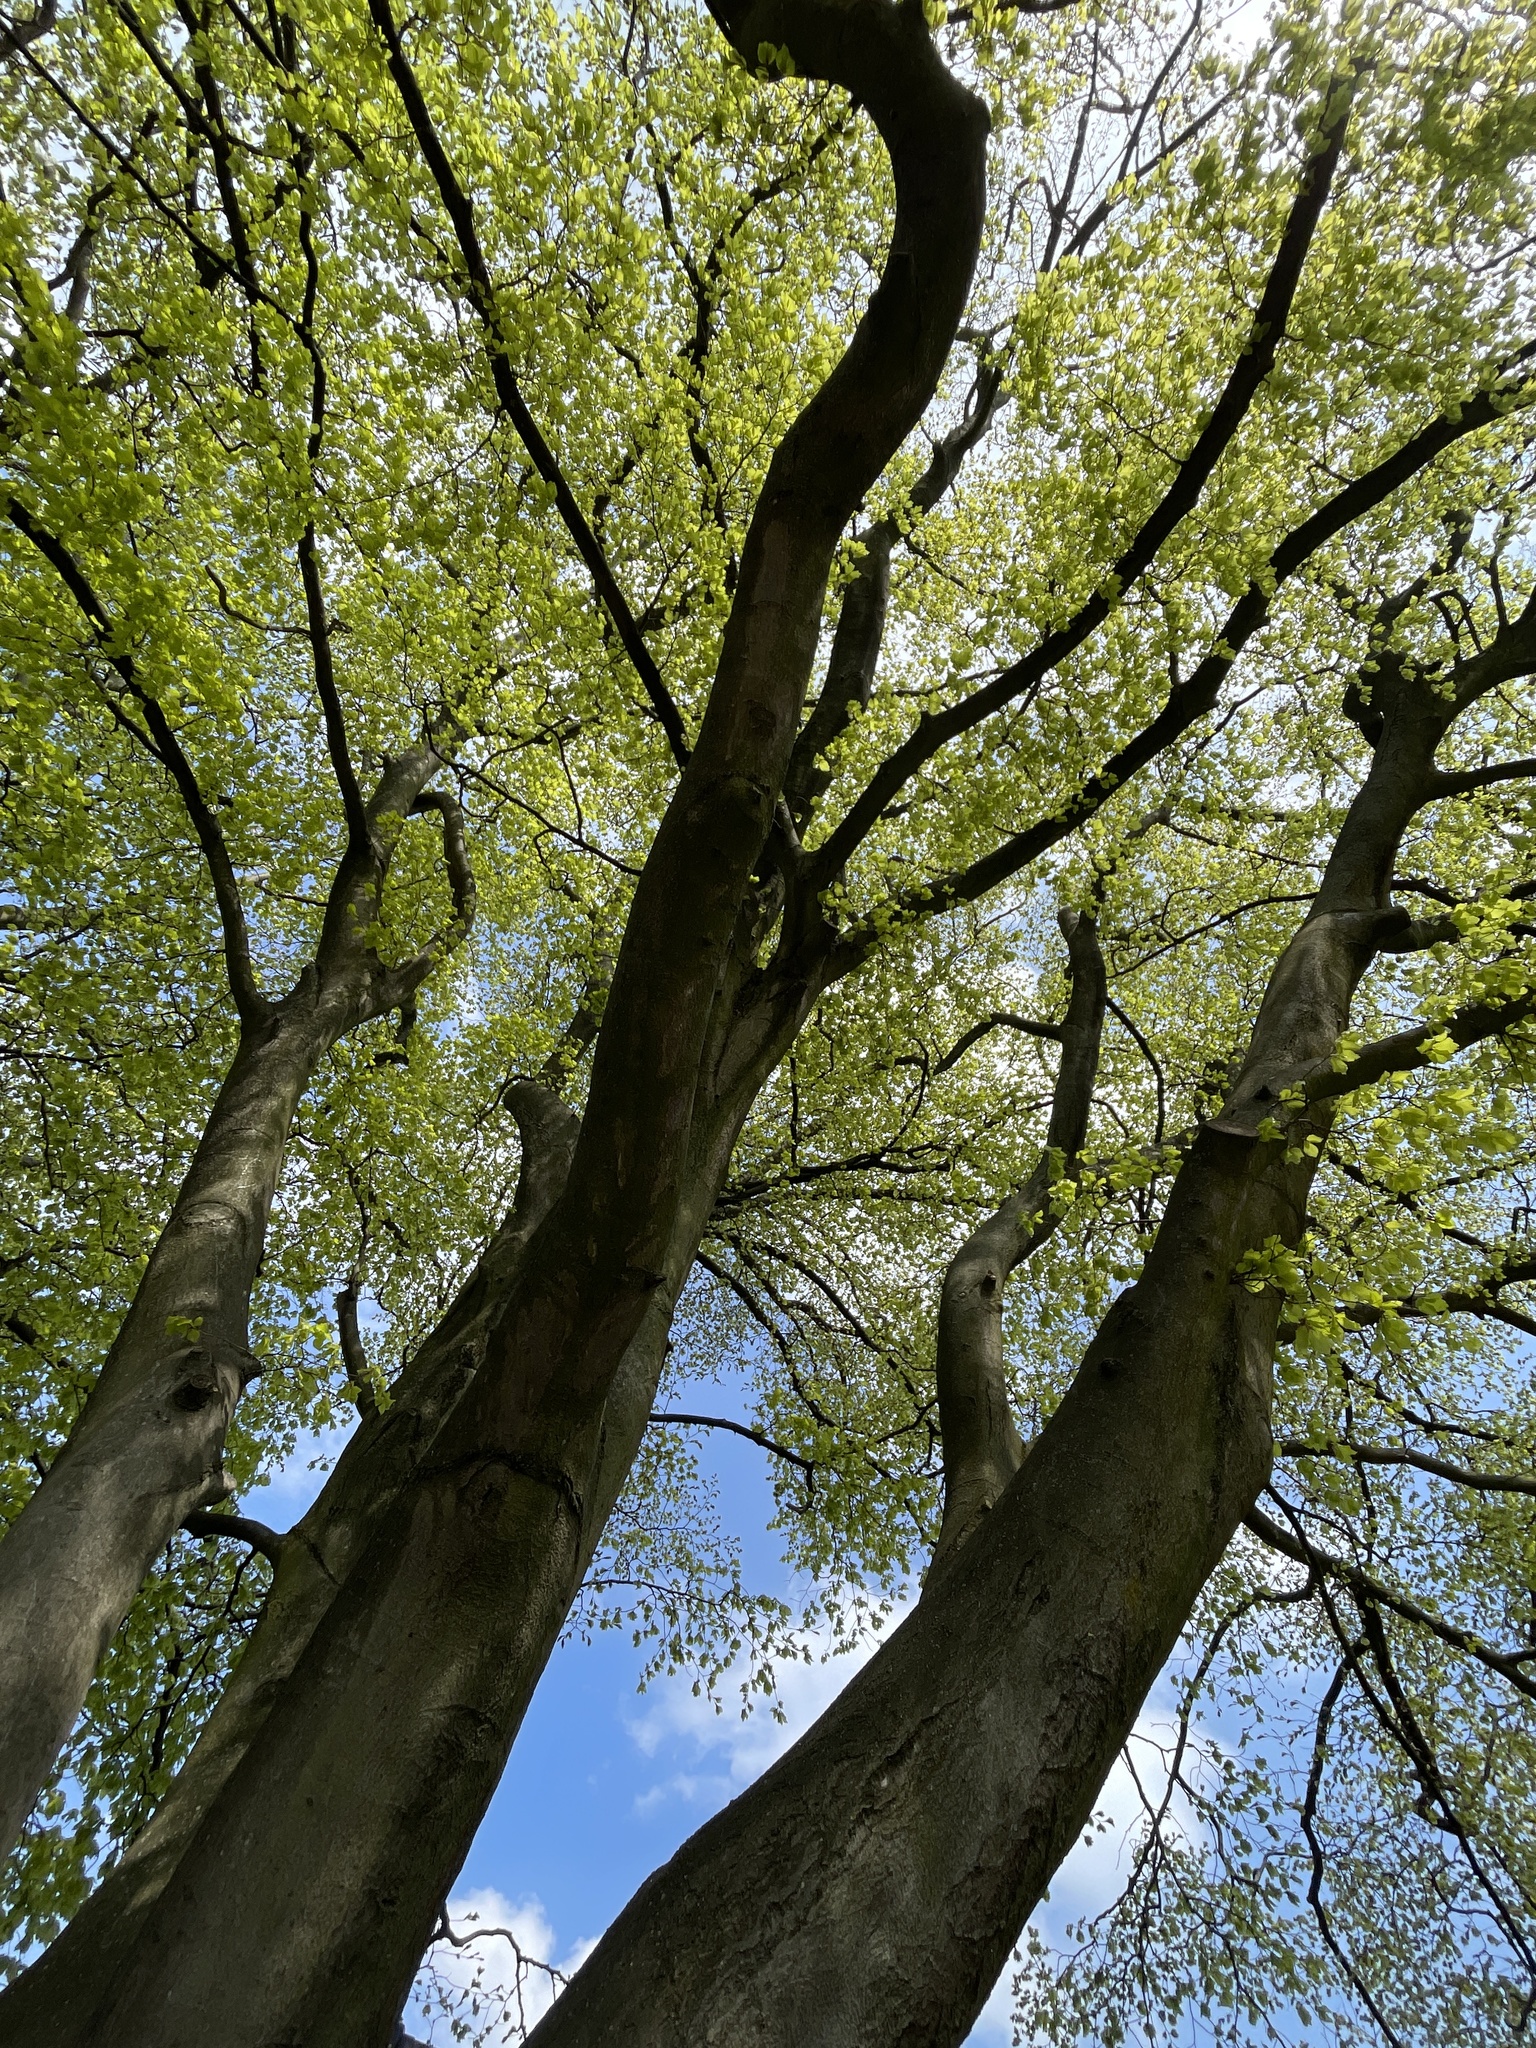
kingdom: Plantae
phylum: Tracheophyta
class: Magnoliopsida
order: Fagales
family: Fagaceae
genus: Fagus
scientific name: Fagus sylvatica
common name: Beech
